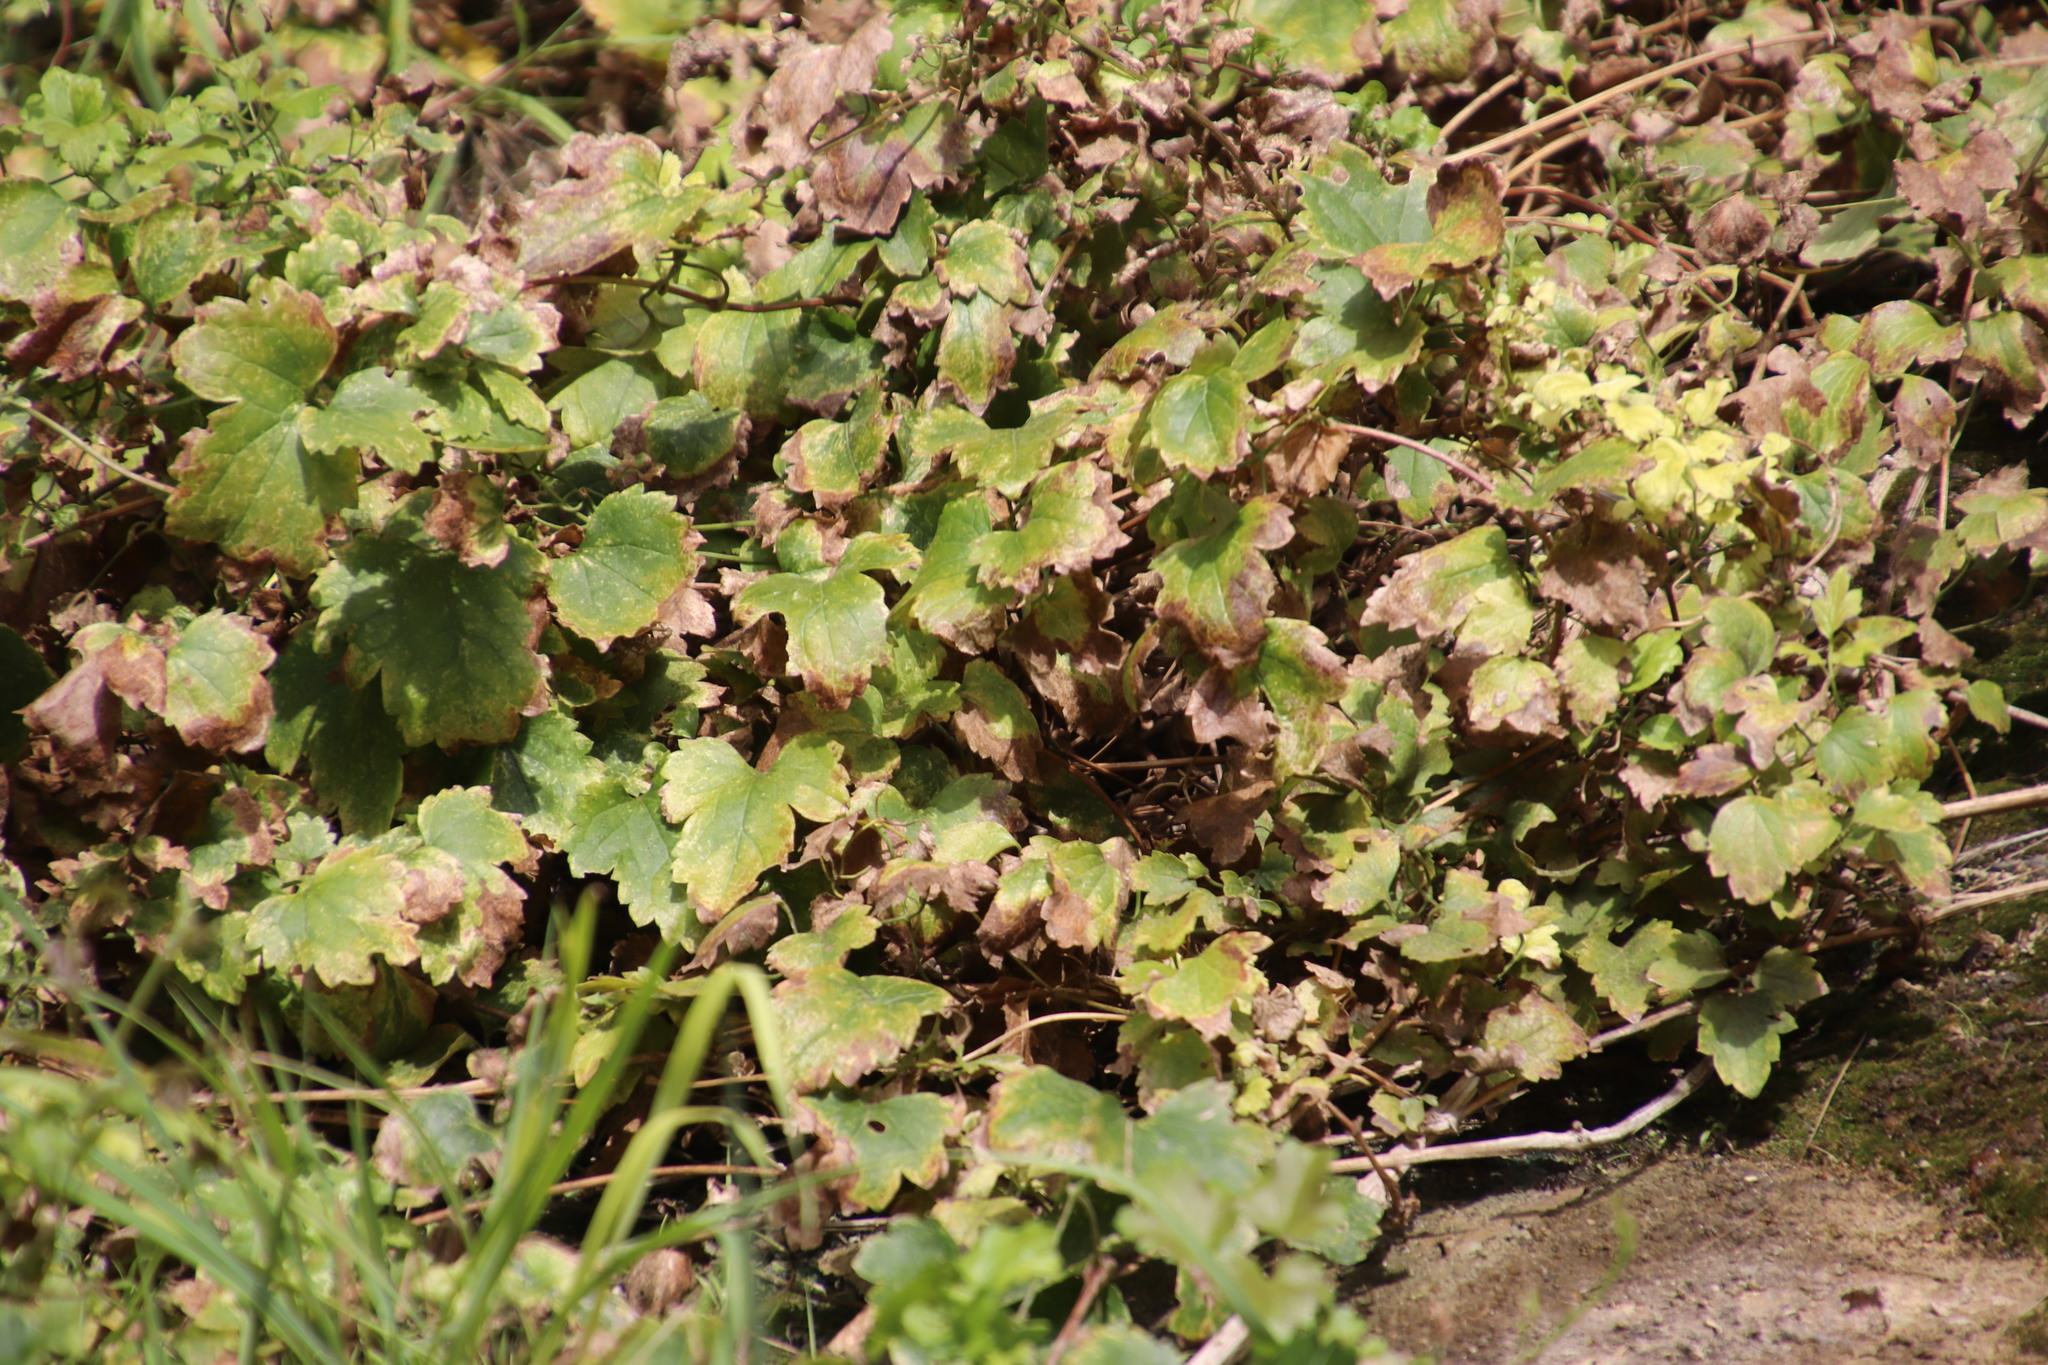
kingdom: Plantae
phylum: Tracheophyta
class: Magnoliopsida
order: Ranunculales
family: Ranunculaceae
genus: Clematis
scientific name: Clematis brachiata
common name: Traveler's-joy
